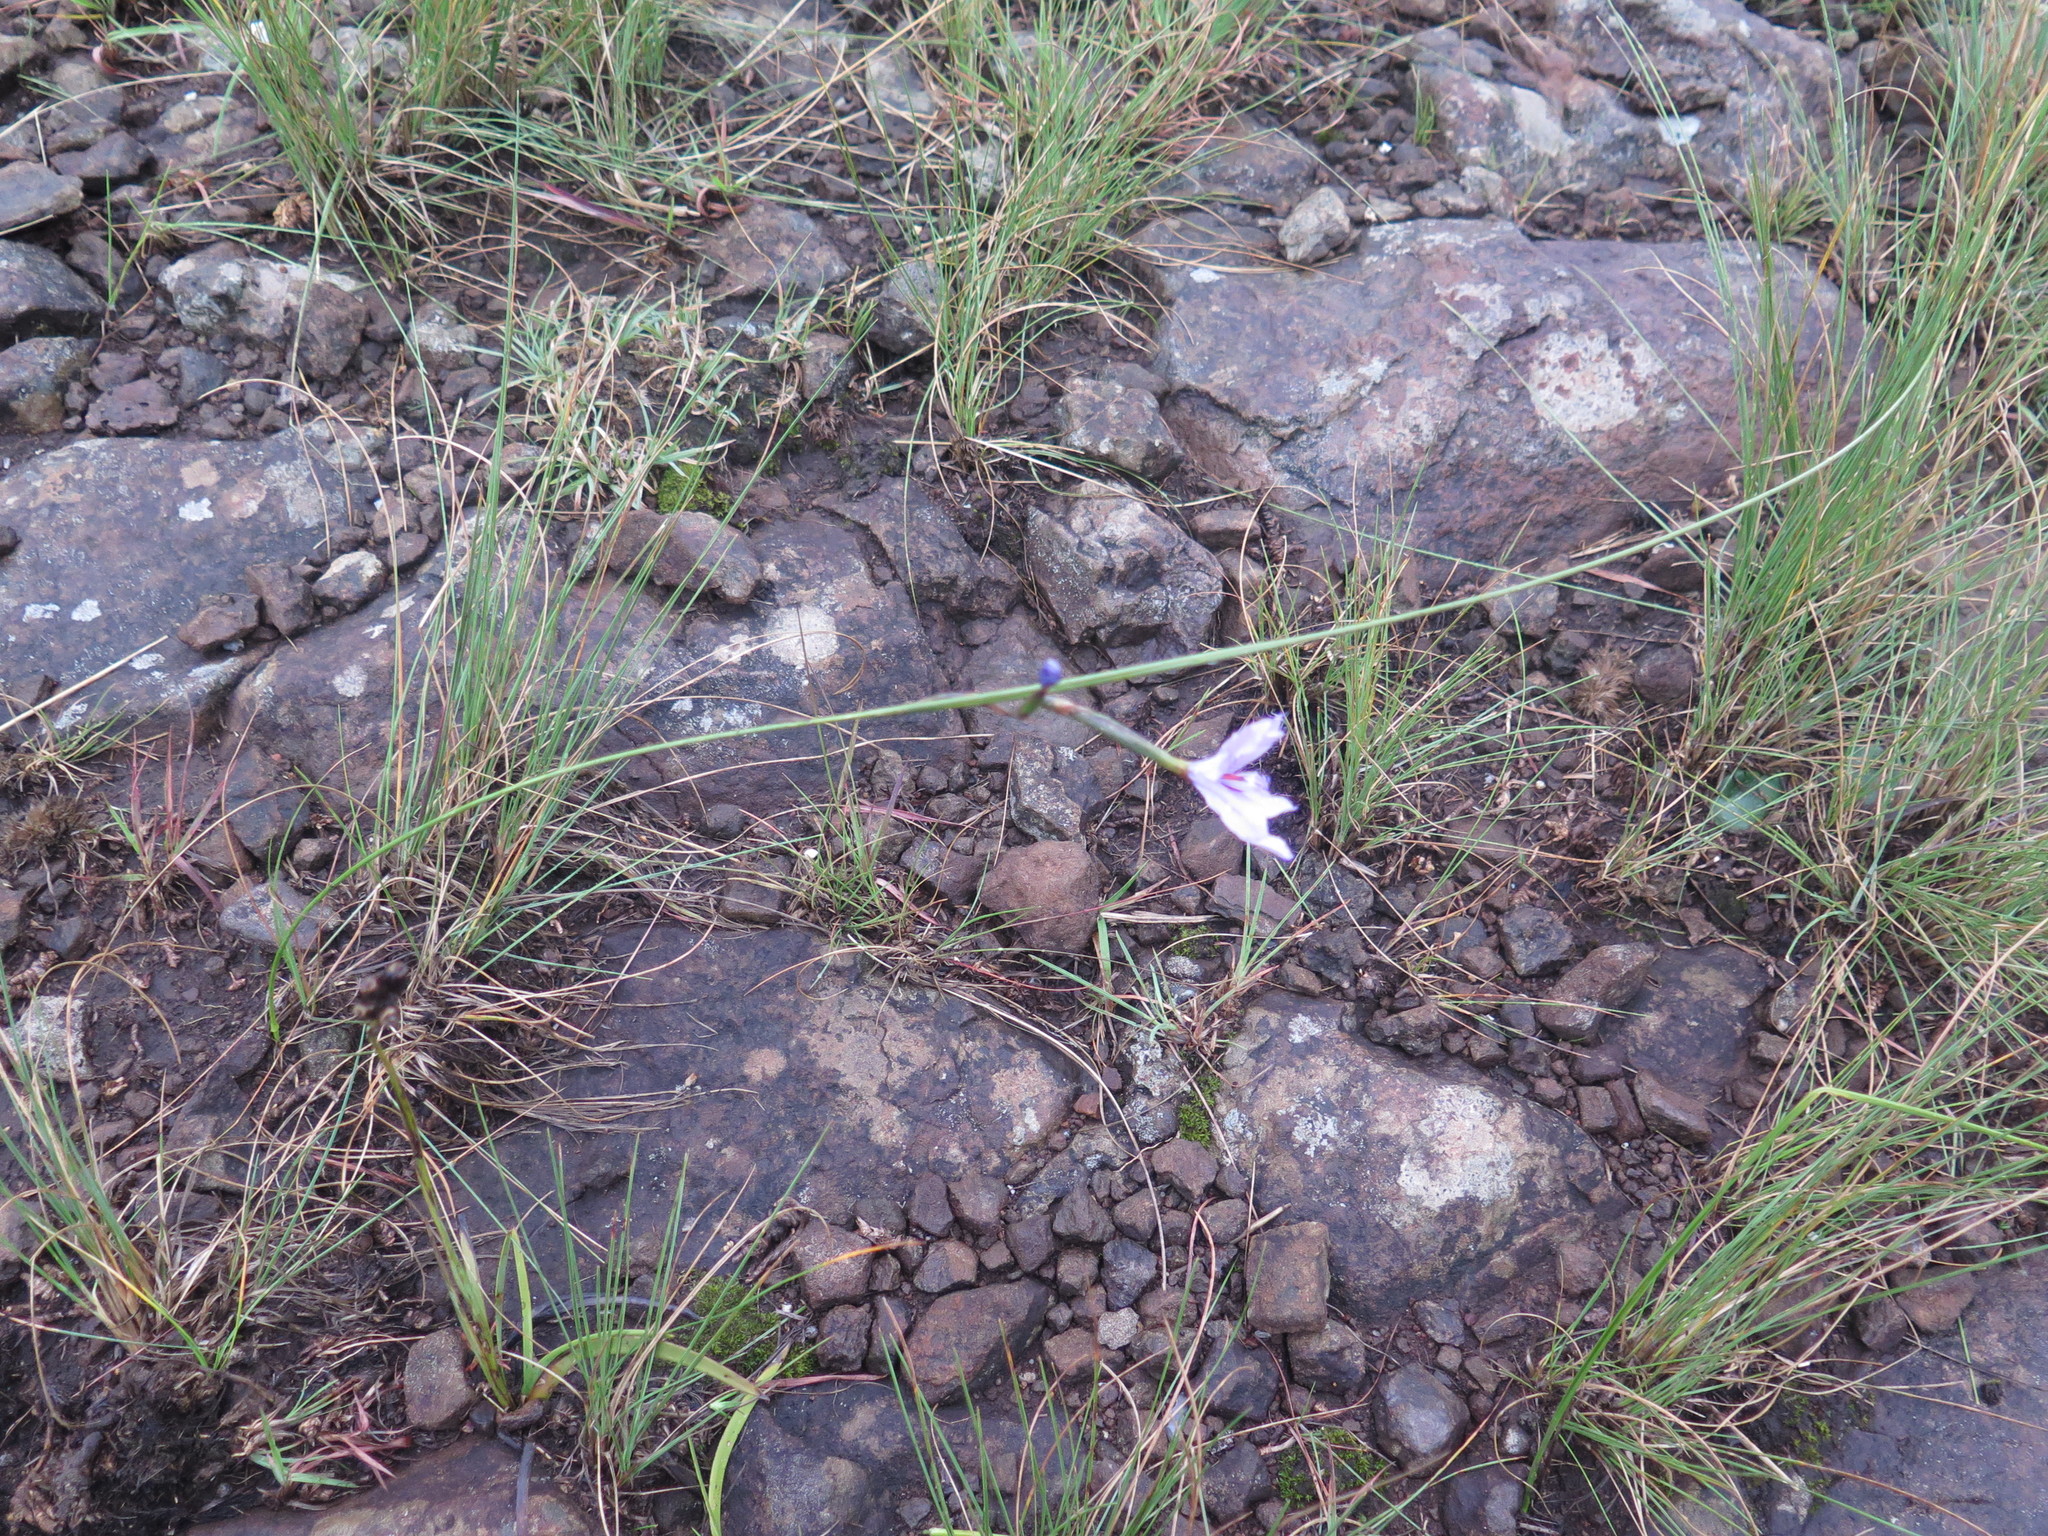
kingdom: Plantae
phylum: Tracheophyta
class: Liliopsida
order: Asparagales
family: Iridaceae
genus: Moraea
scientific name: Moraea inclinata
